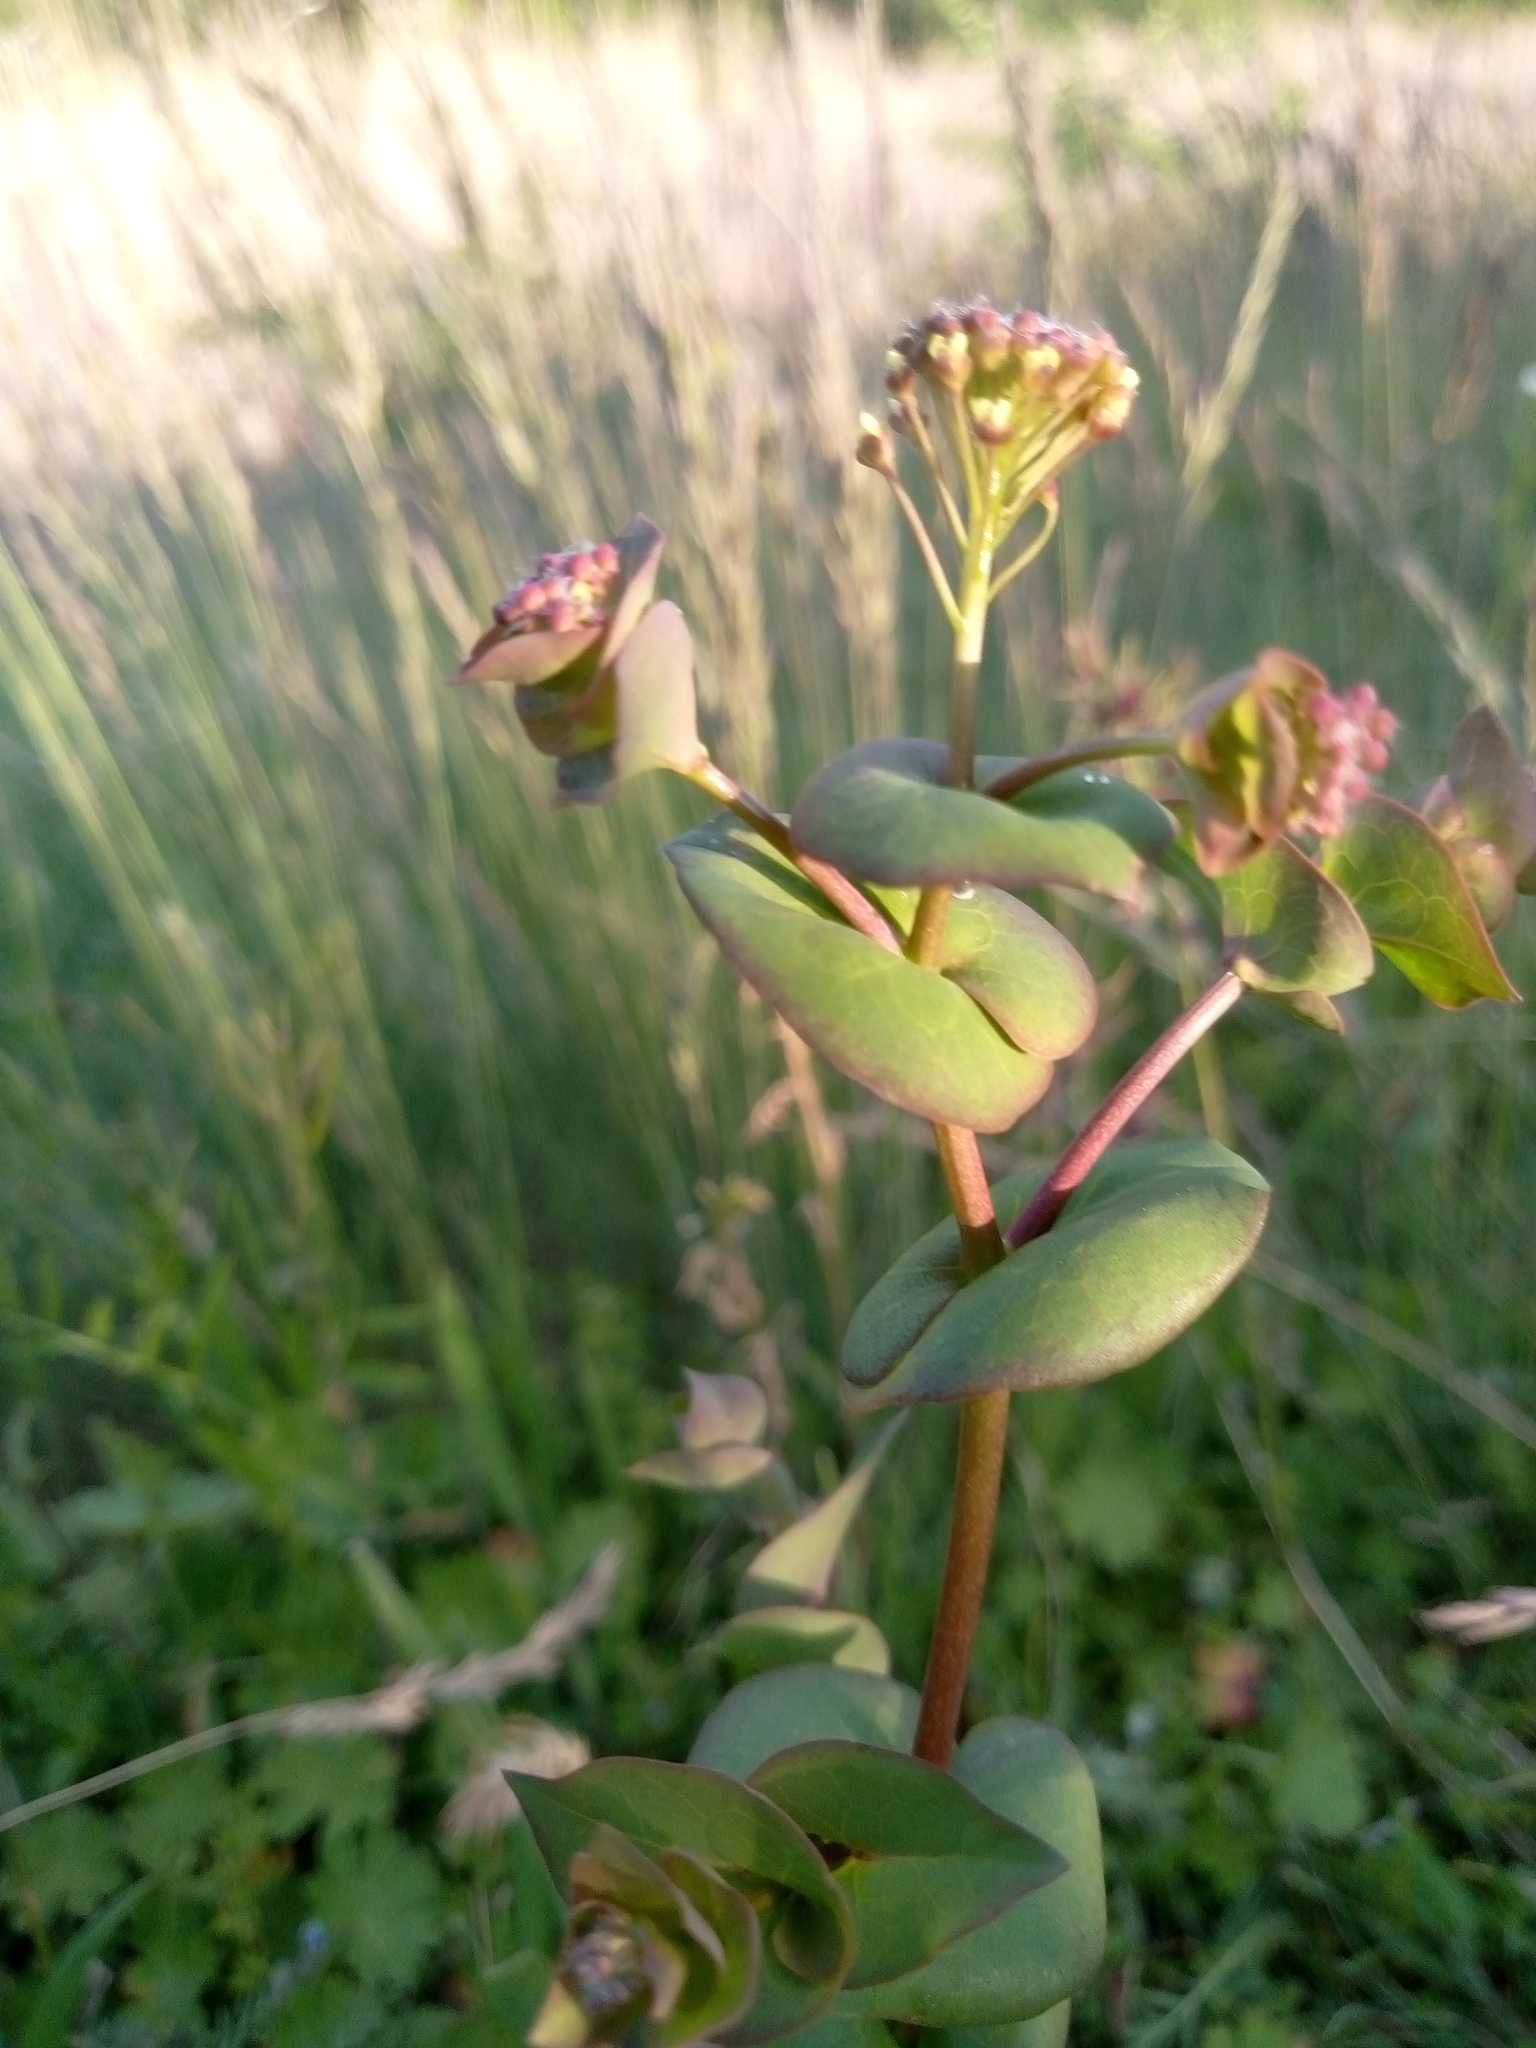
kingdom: Plantae
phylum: Tracheophyta
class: Magnoliopsida
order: Brassicales
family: Brassicaceae
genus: Lepidium
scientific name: Lepidium perfoliatum
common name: Perfoliate pepperwort
